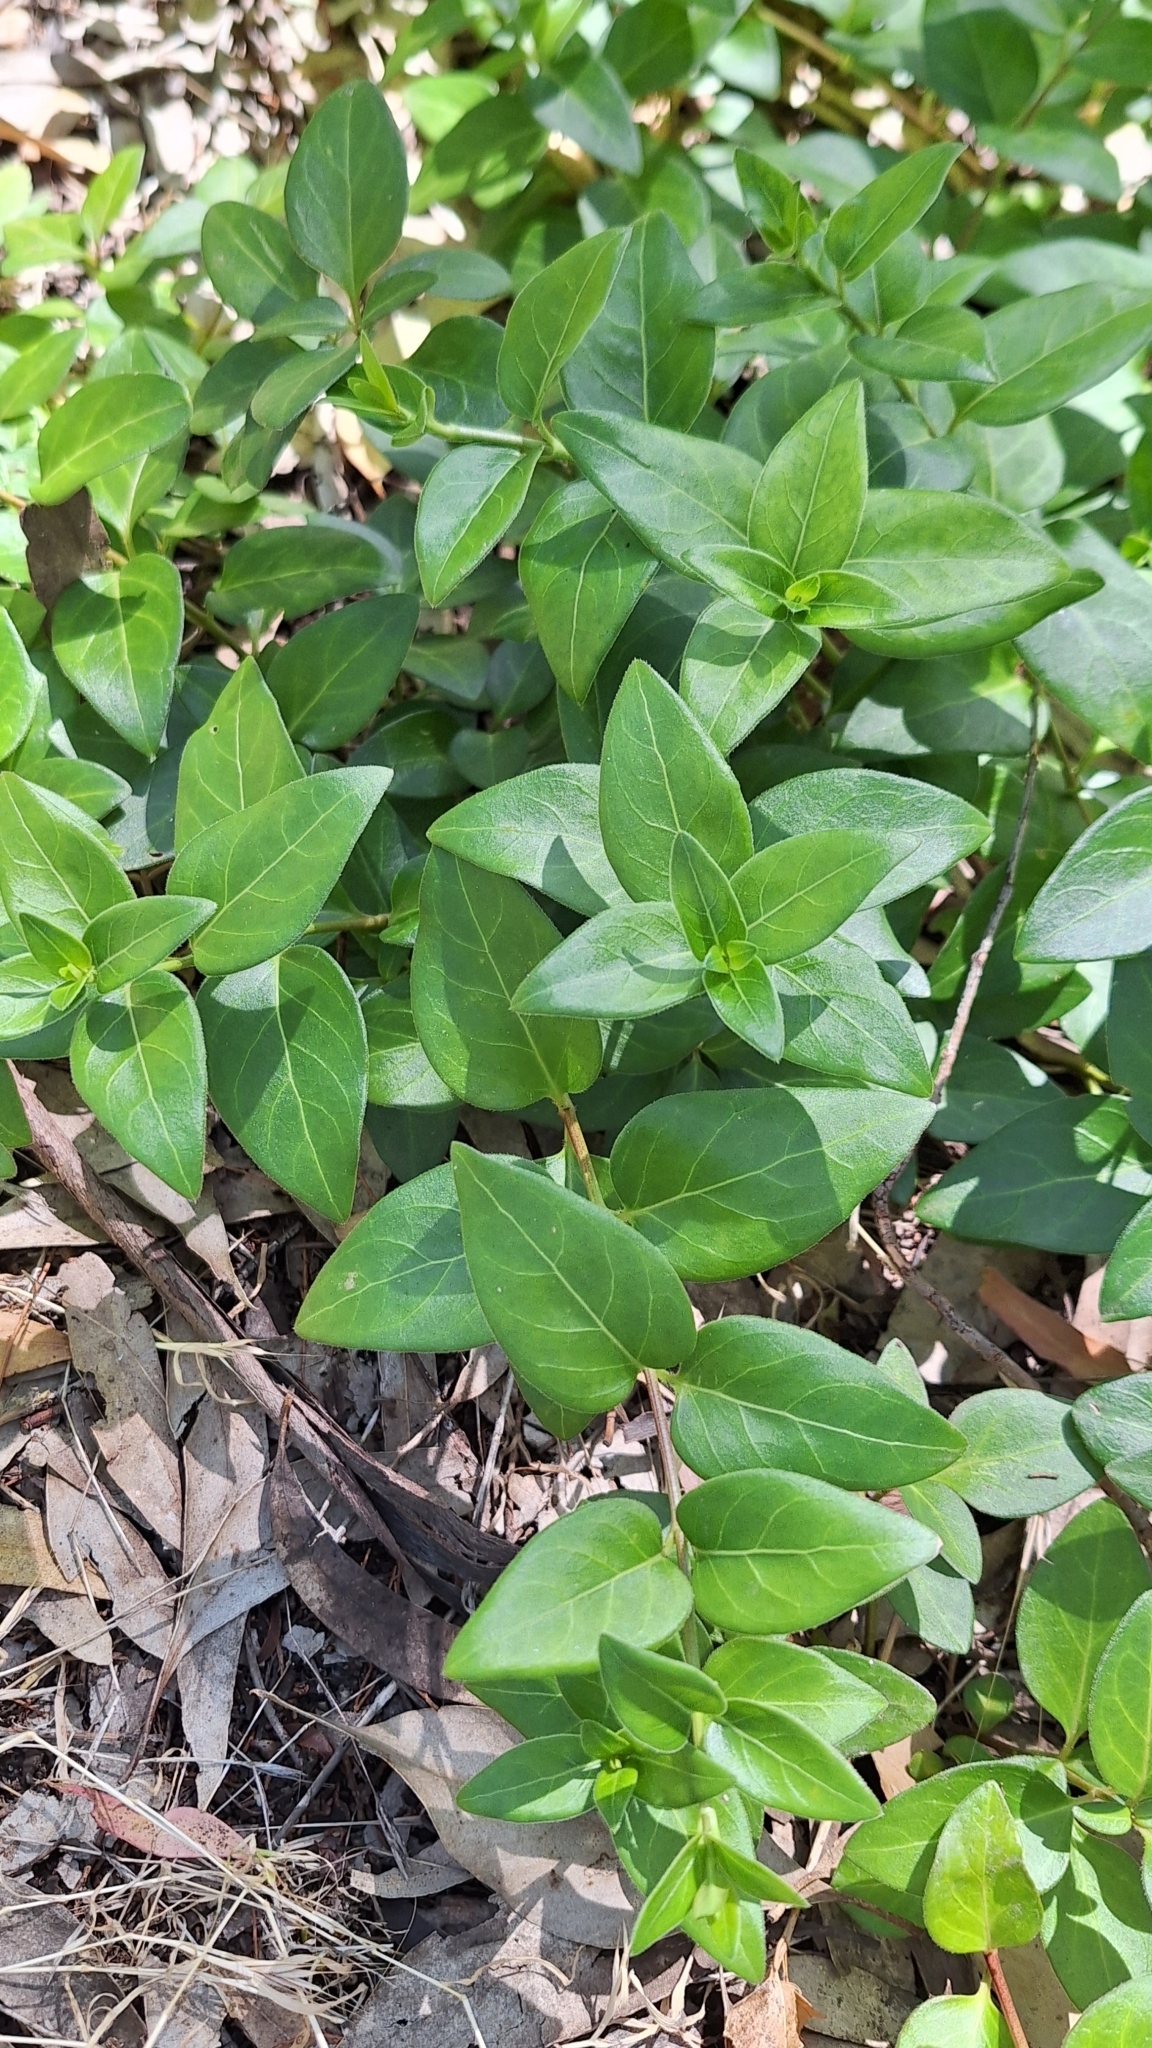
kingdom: Plantae
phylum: Tracheophyta
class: Magnoliopsida
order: Gentianales
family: Apocynaceae
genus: Vinca
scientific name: Vinca major
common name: Greater periwinkle
